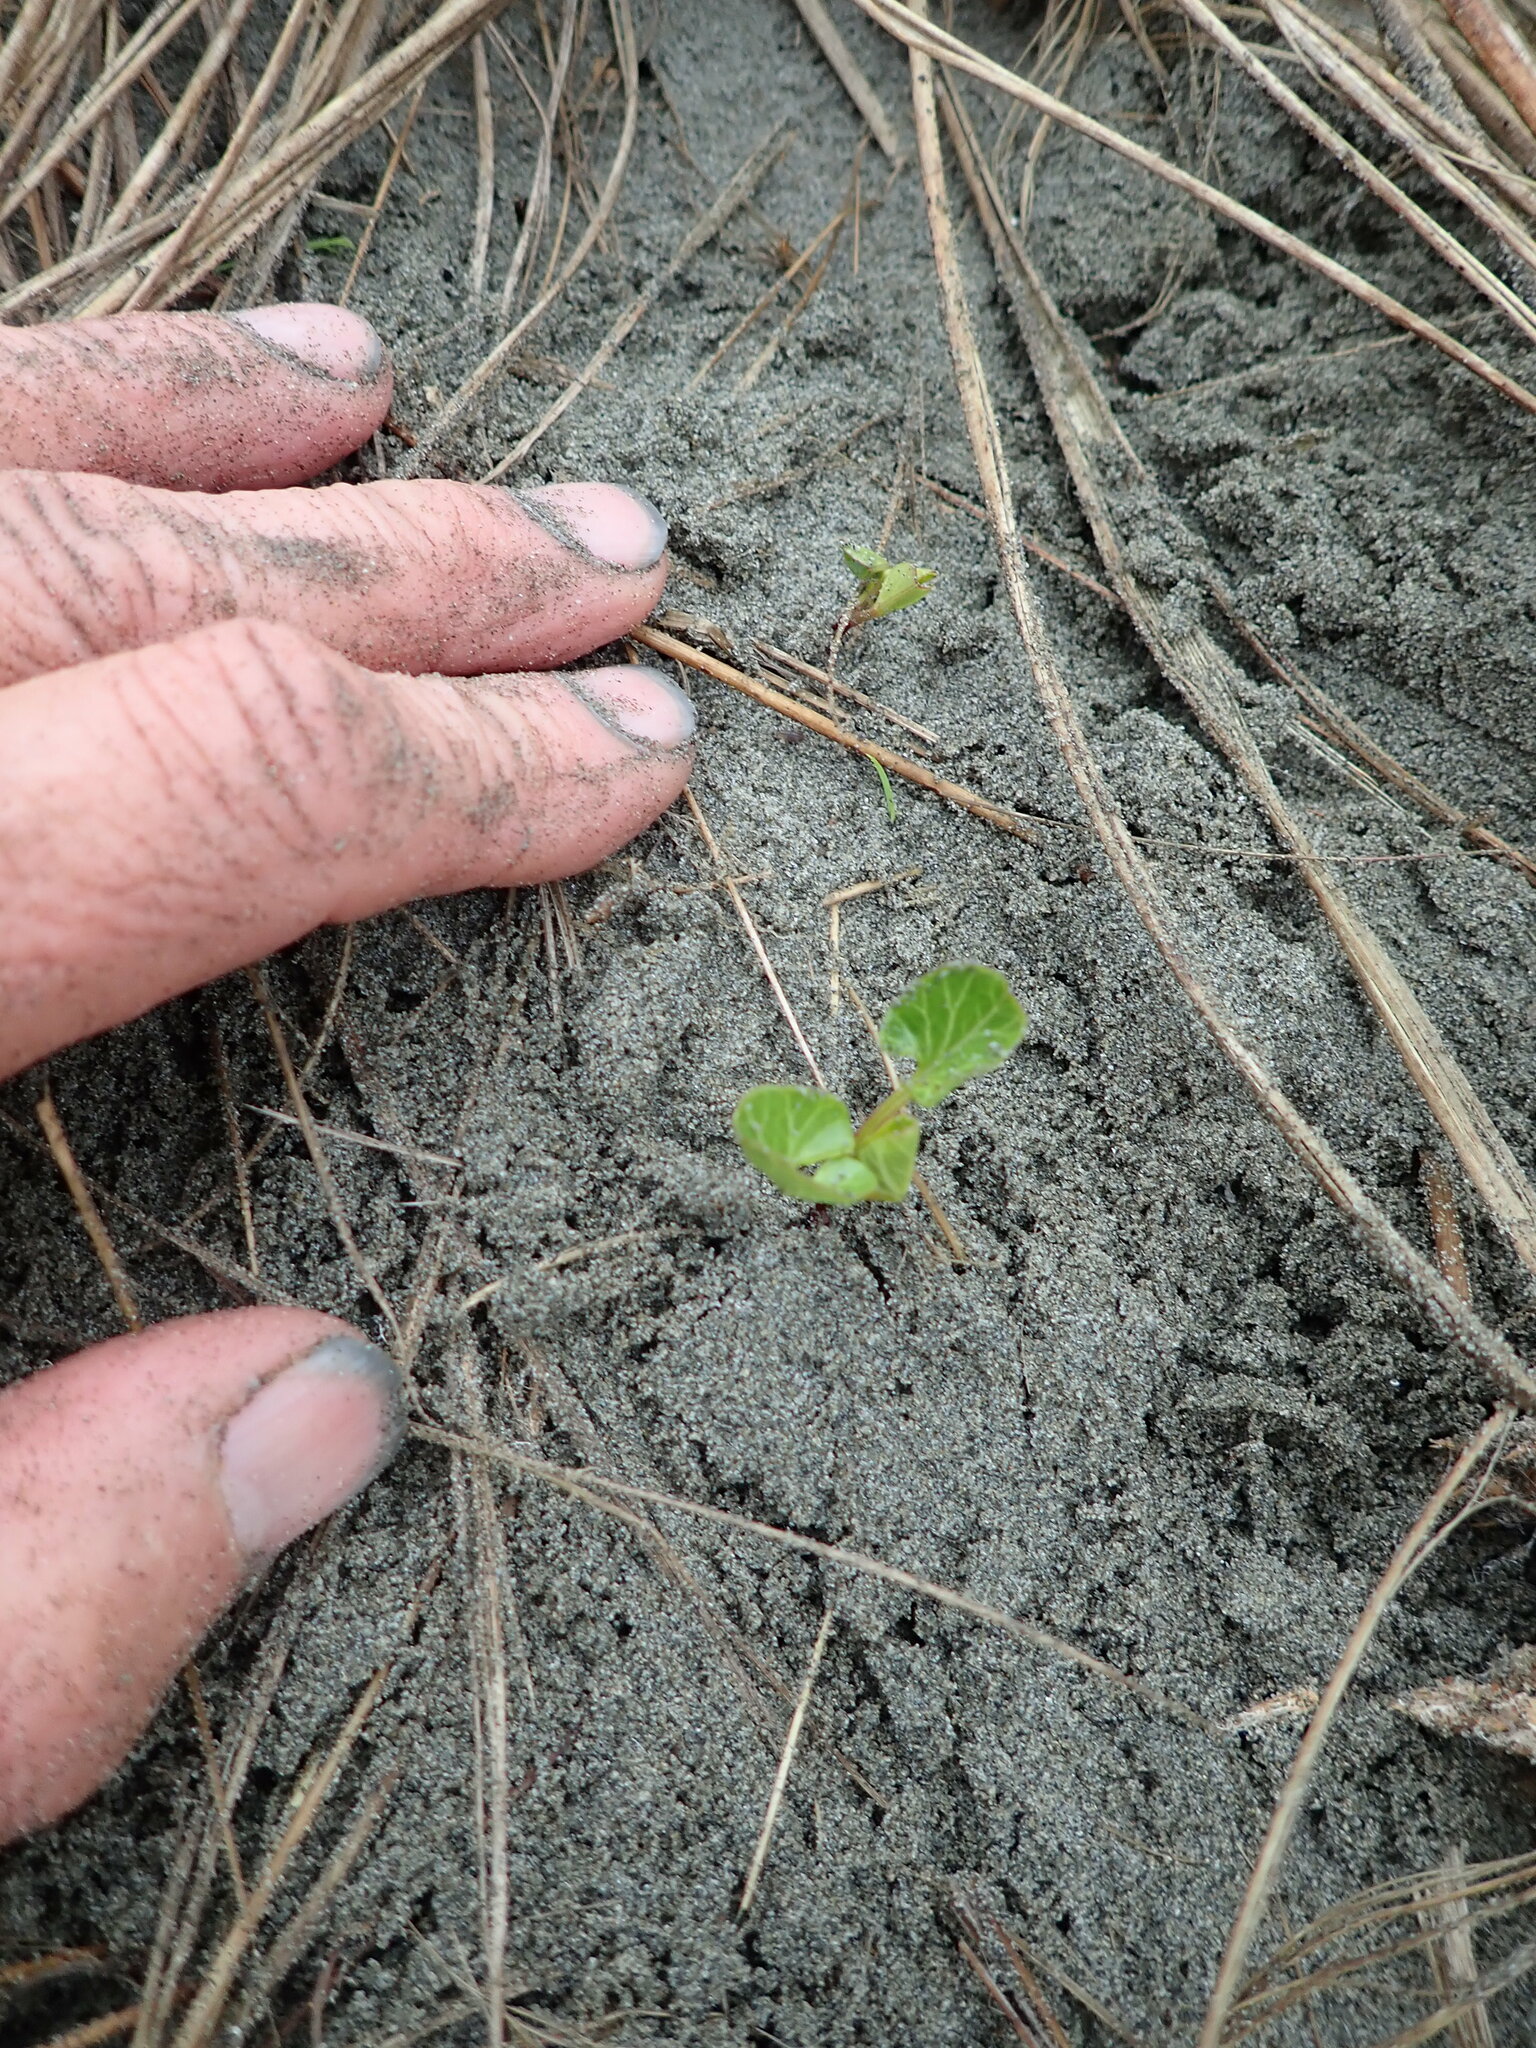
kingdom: Plantae
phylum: Tracheophyta
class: Magnoliopsida
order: Solanales
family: Convolvulaceae
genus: Calystegia
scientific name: Calystegia soldanella
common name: Sea bindweed
